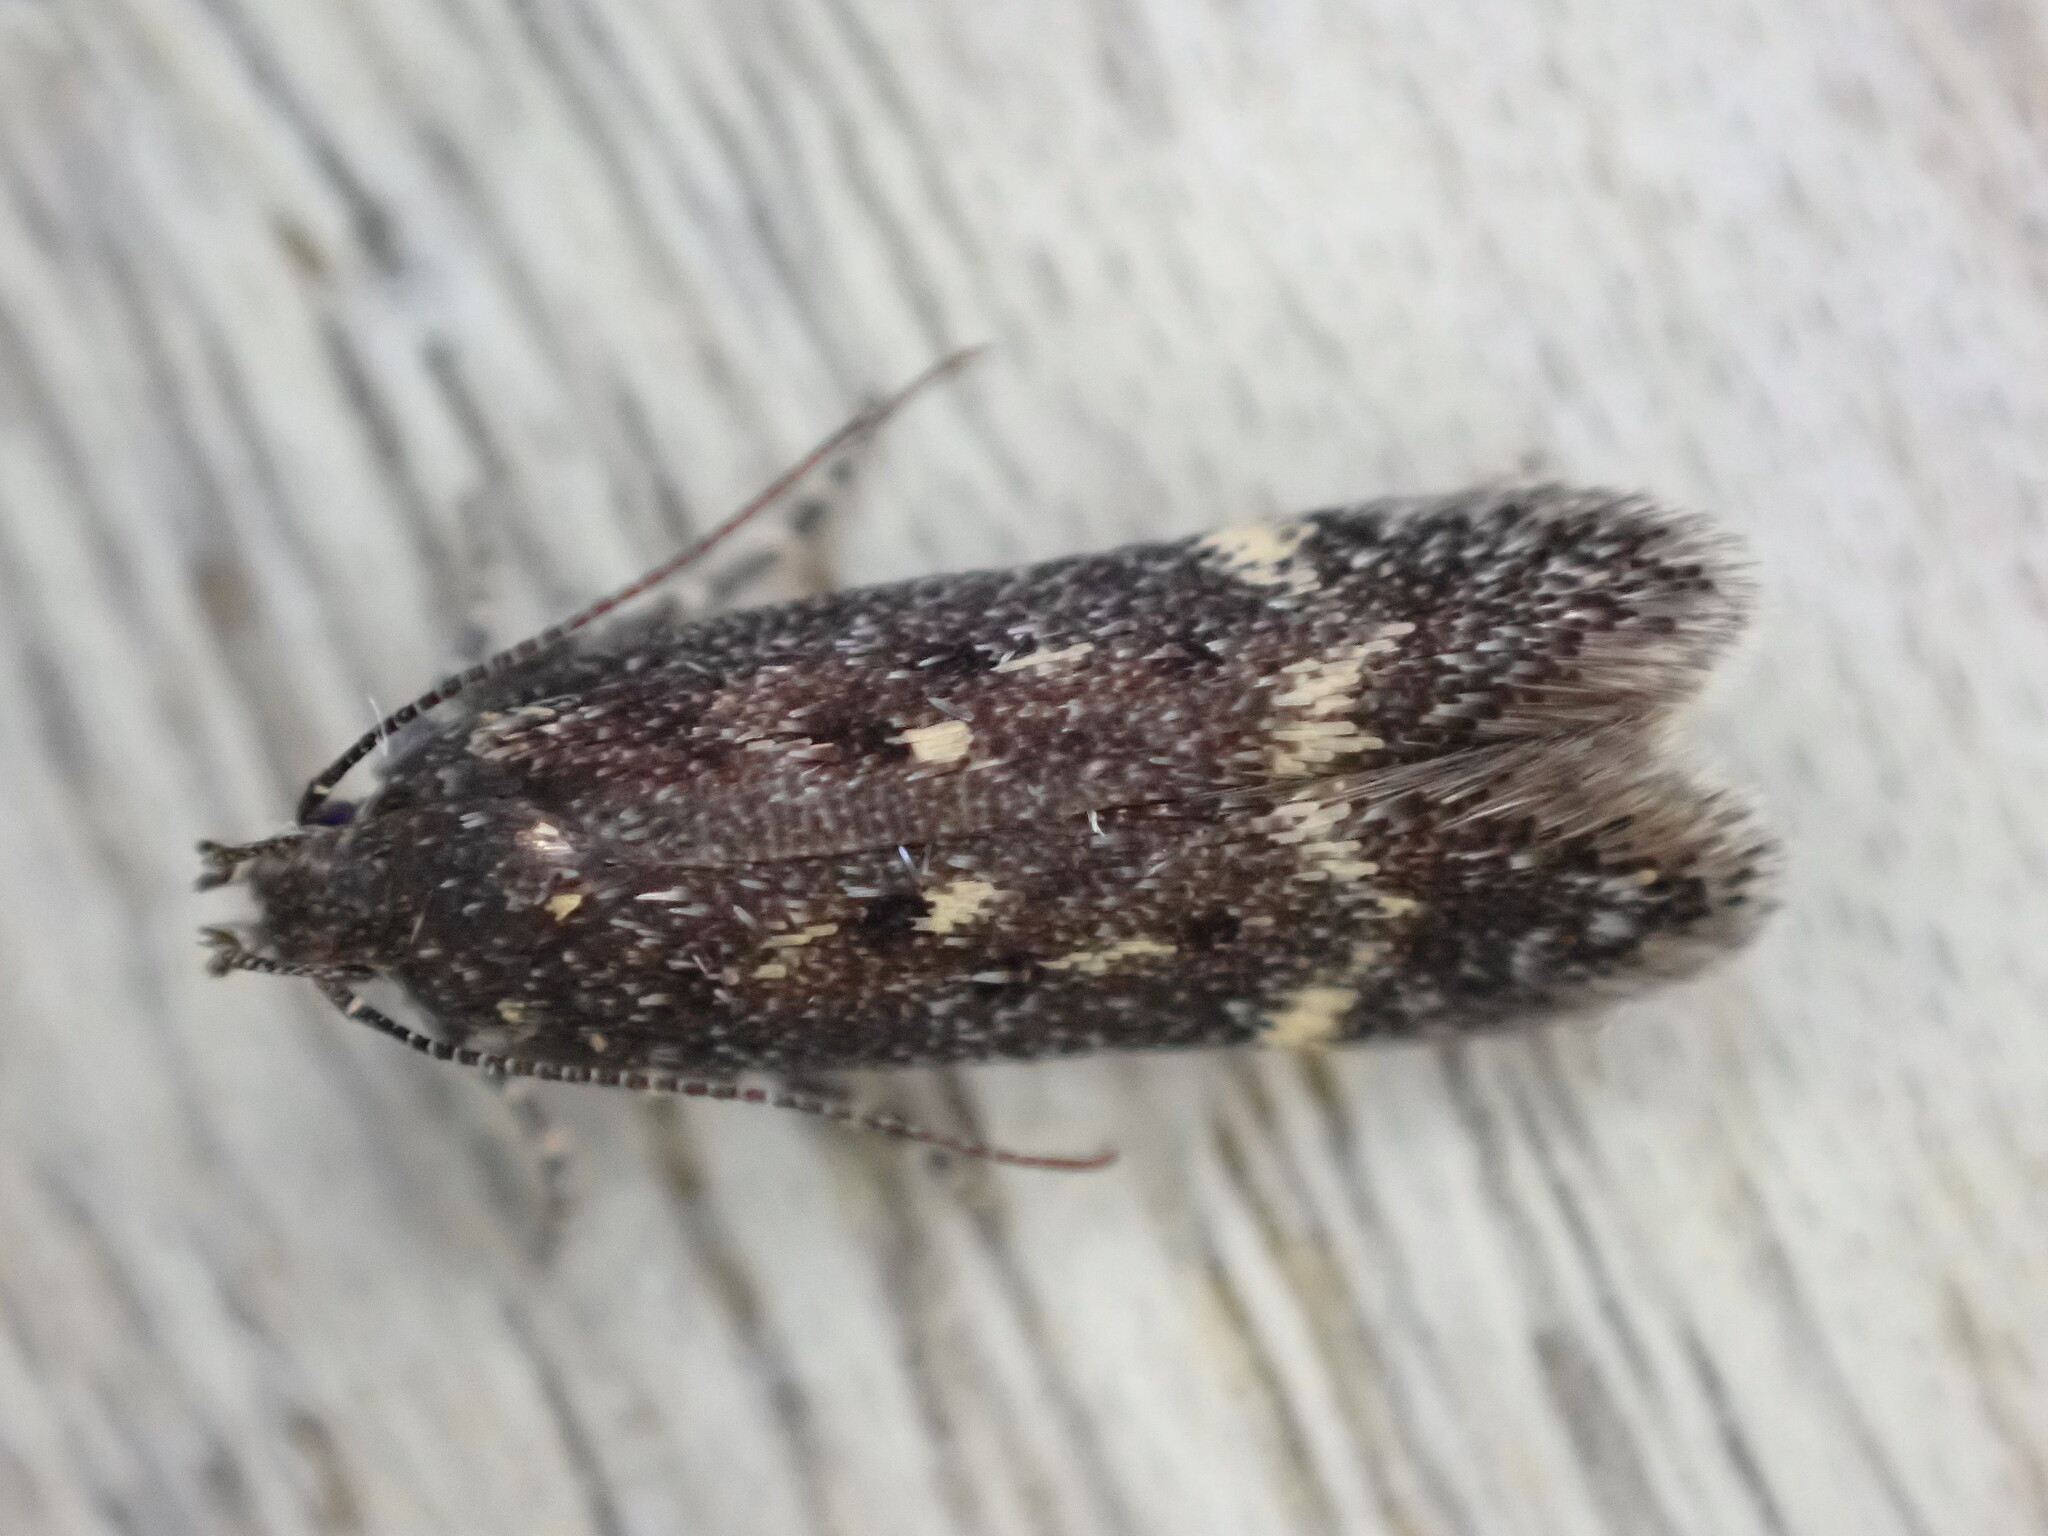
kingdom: Animalia
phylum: Arthropoda
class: Insecta
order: Lepidoptera
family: Gelechiidae
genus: Bryotropha
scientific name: Bryotropha affinis
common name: Dark groundling
